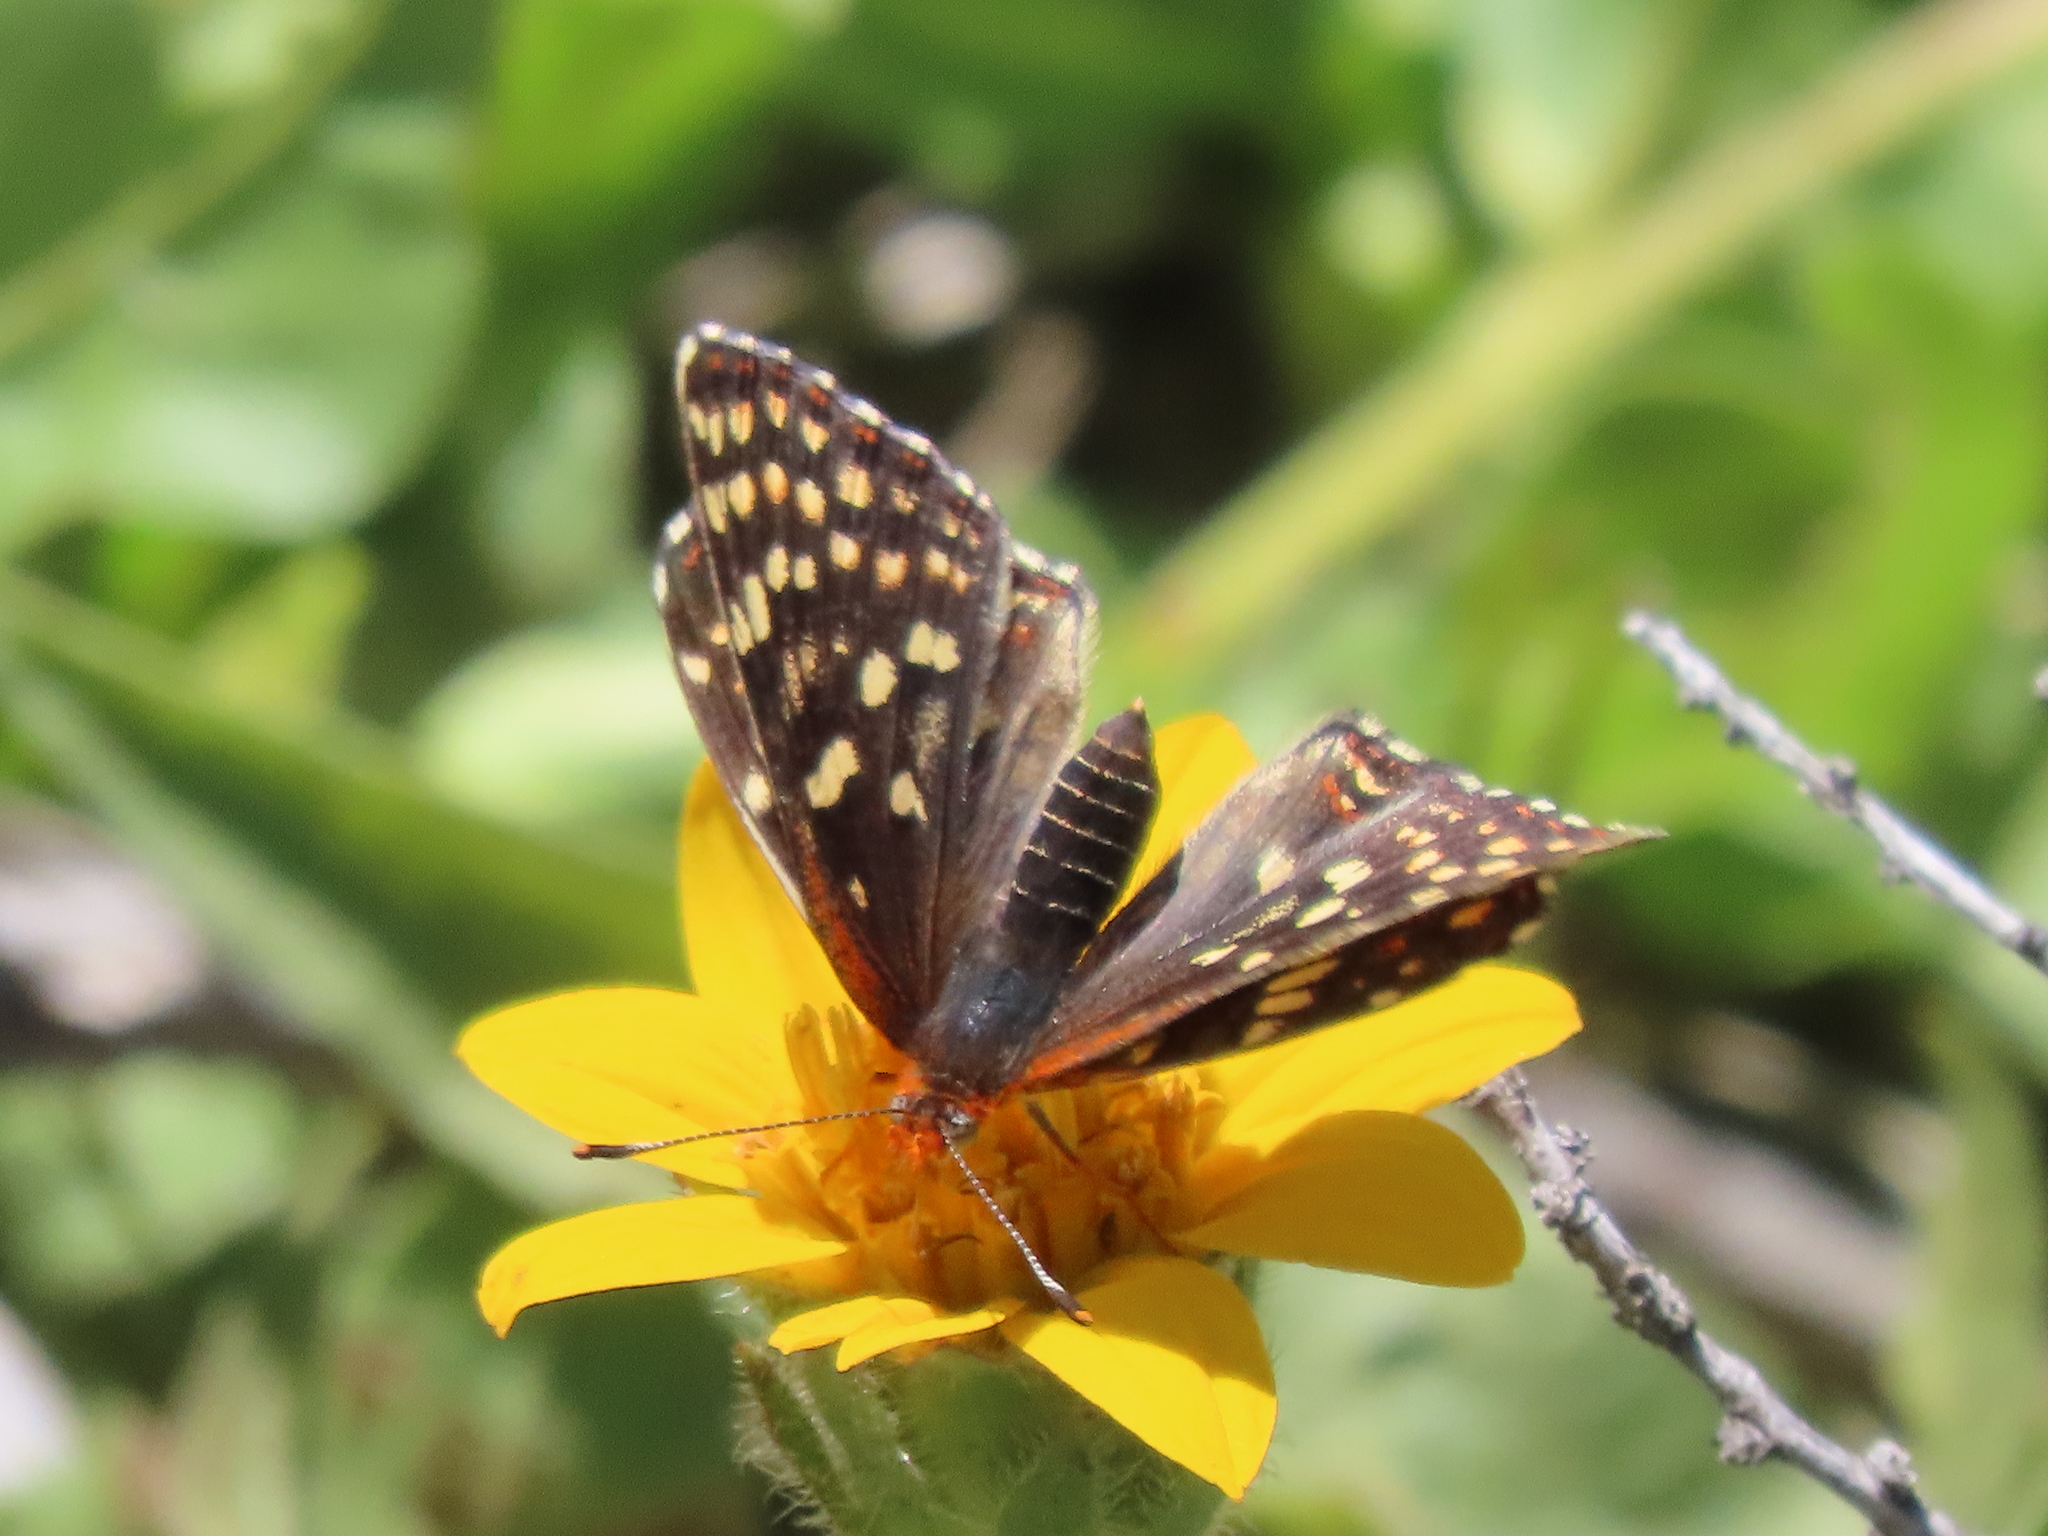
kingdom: Animalia
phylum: Arthropoda
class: Insecta
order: Lepidoptera
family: Nymphalidae
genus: Chlosyne
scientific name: Chlosyne palla
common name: Northern checkerspot
